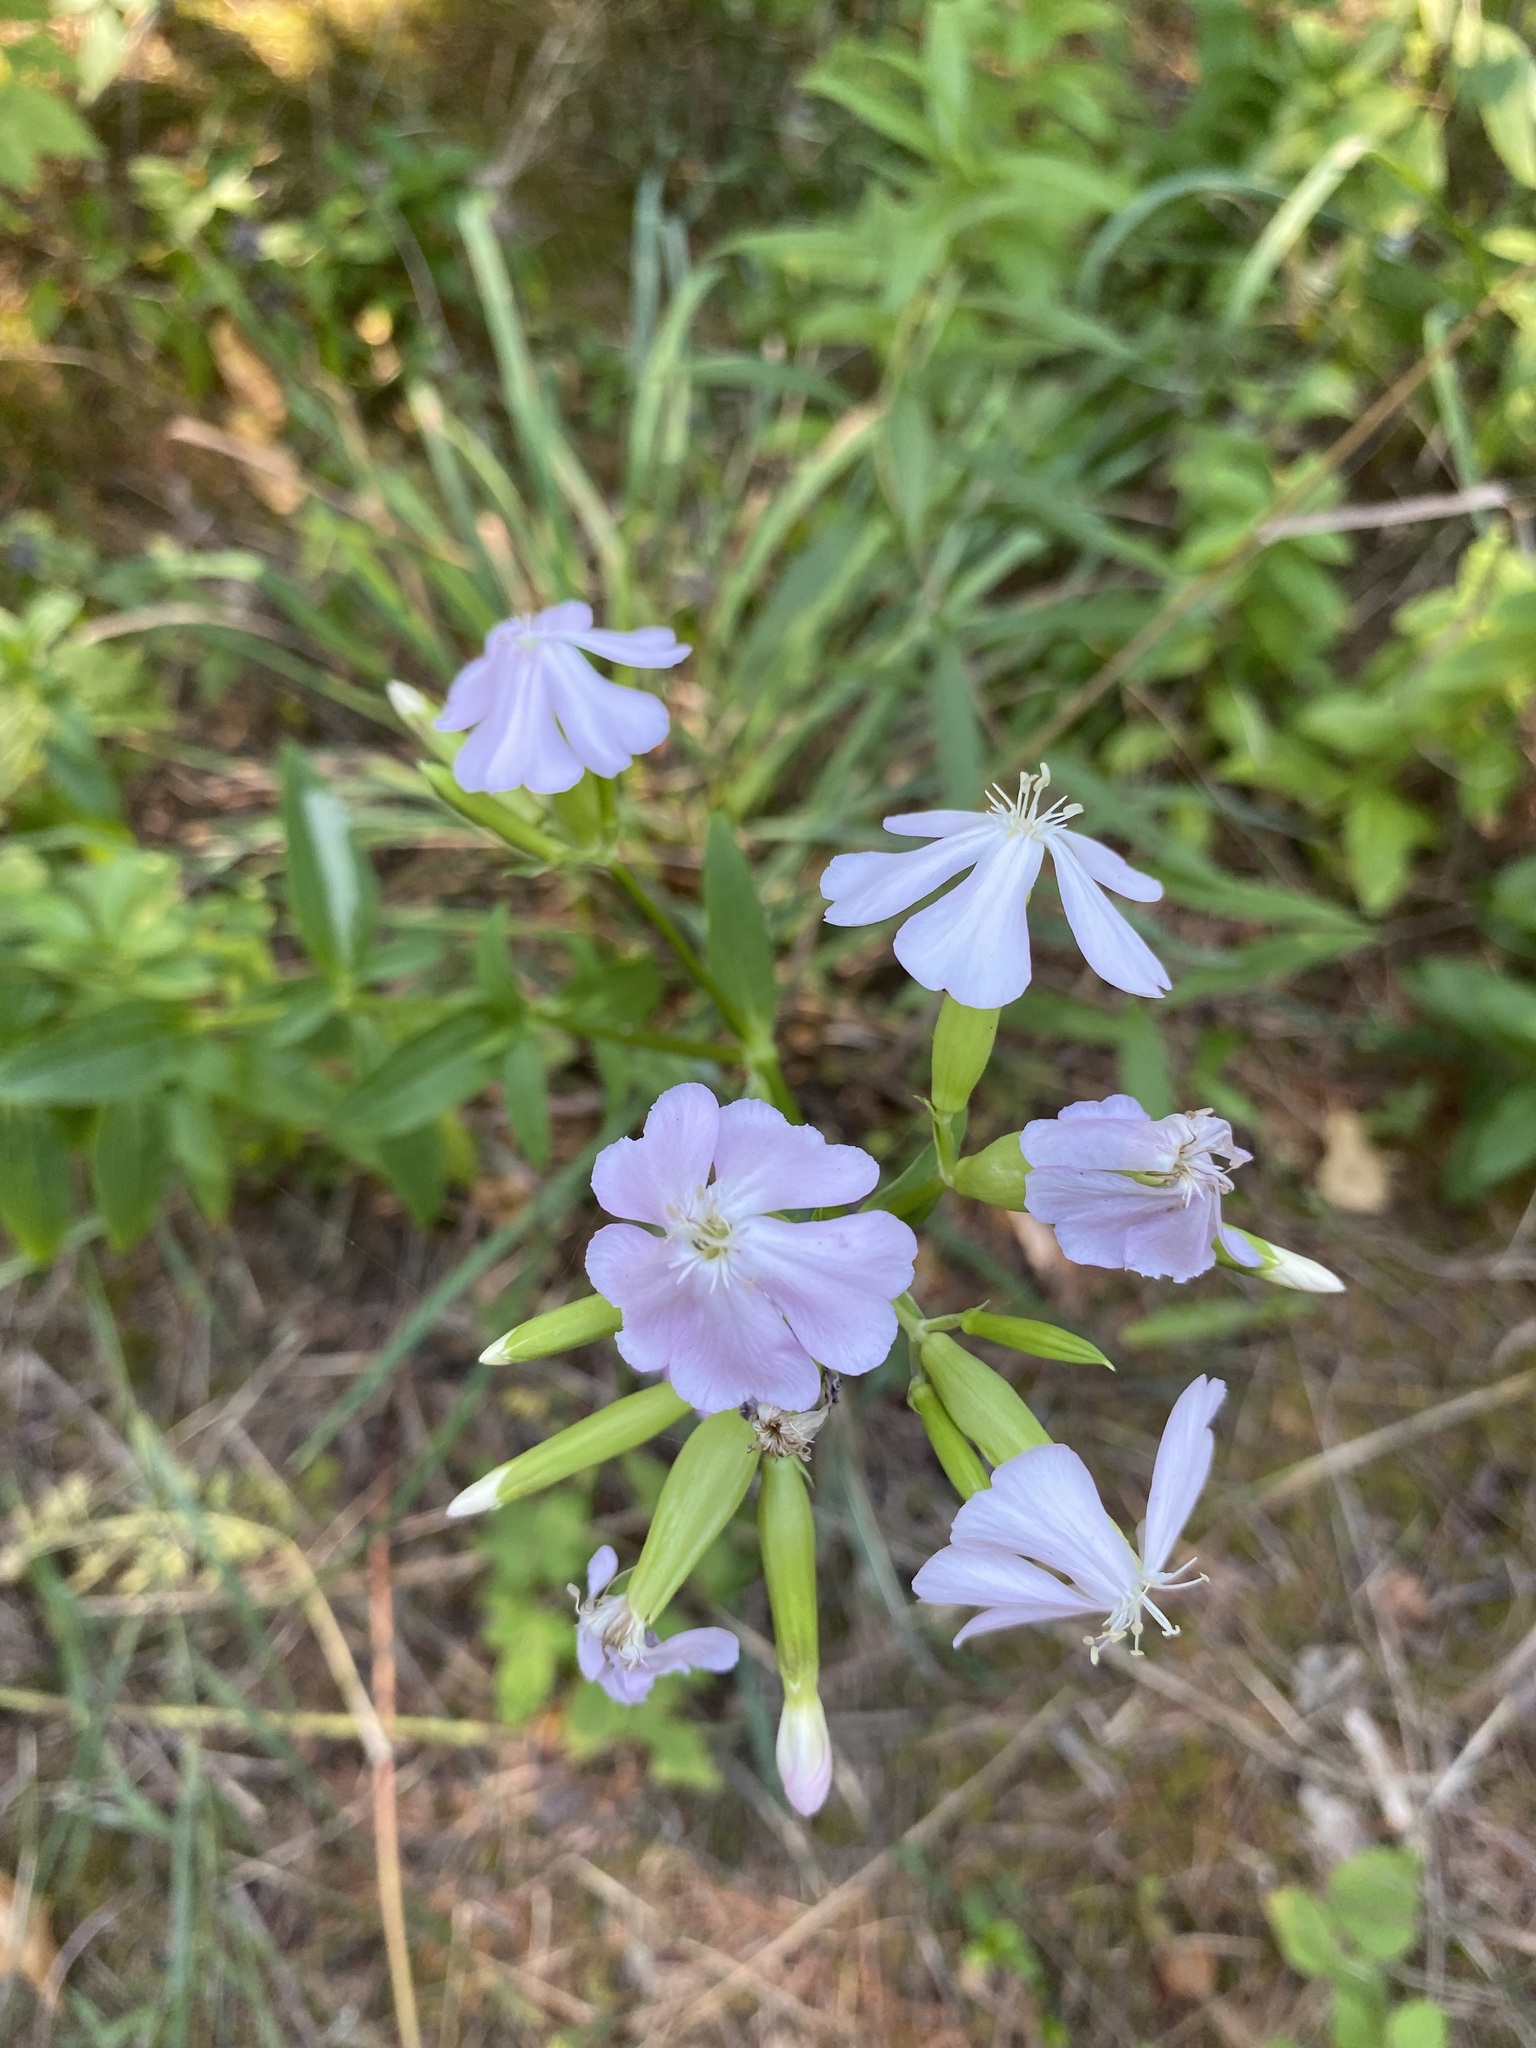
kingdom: Plantae
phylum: Tracheophyta
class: Magnoliopsida
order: Caryophyllales
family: Caryophyllaceae
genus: Saponaria
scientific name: Saponaria officinalis
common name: Soapwort
